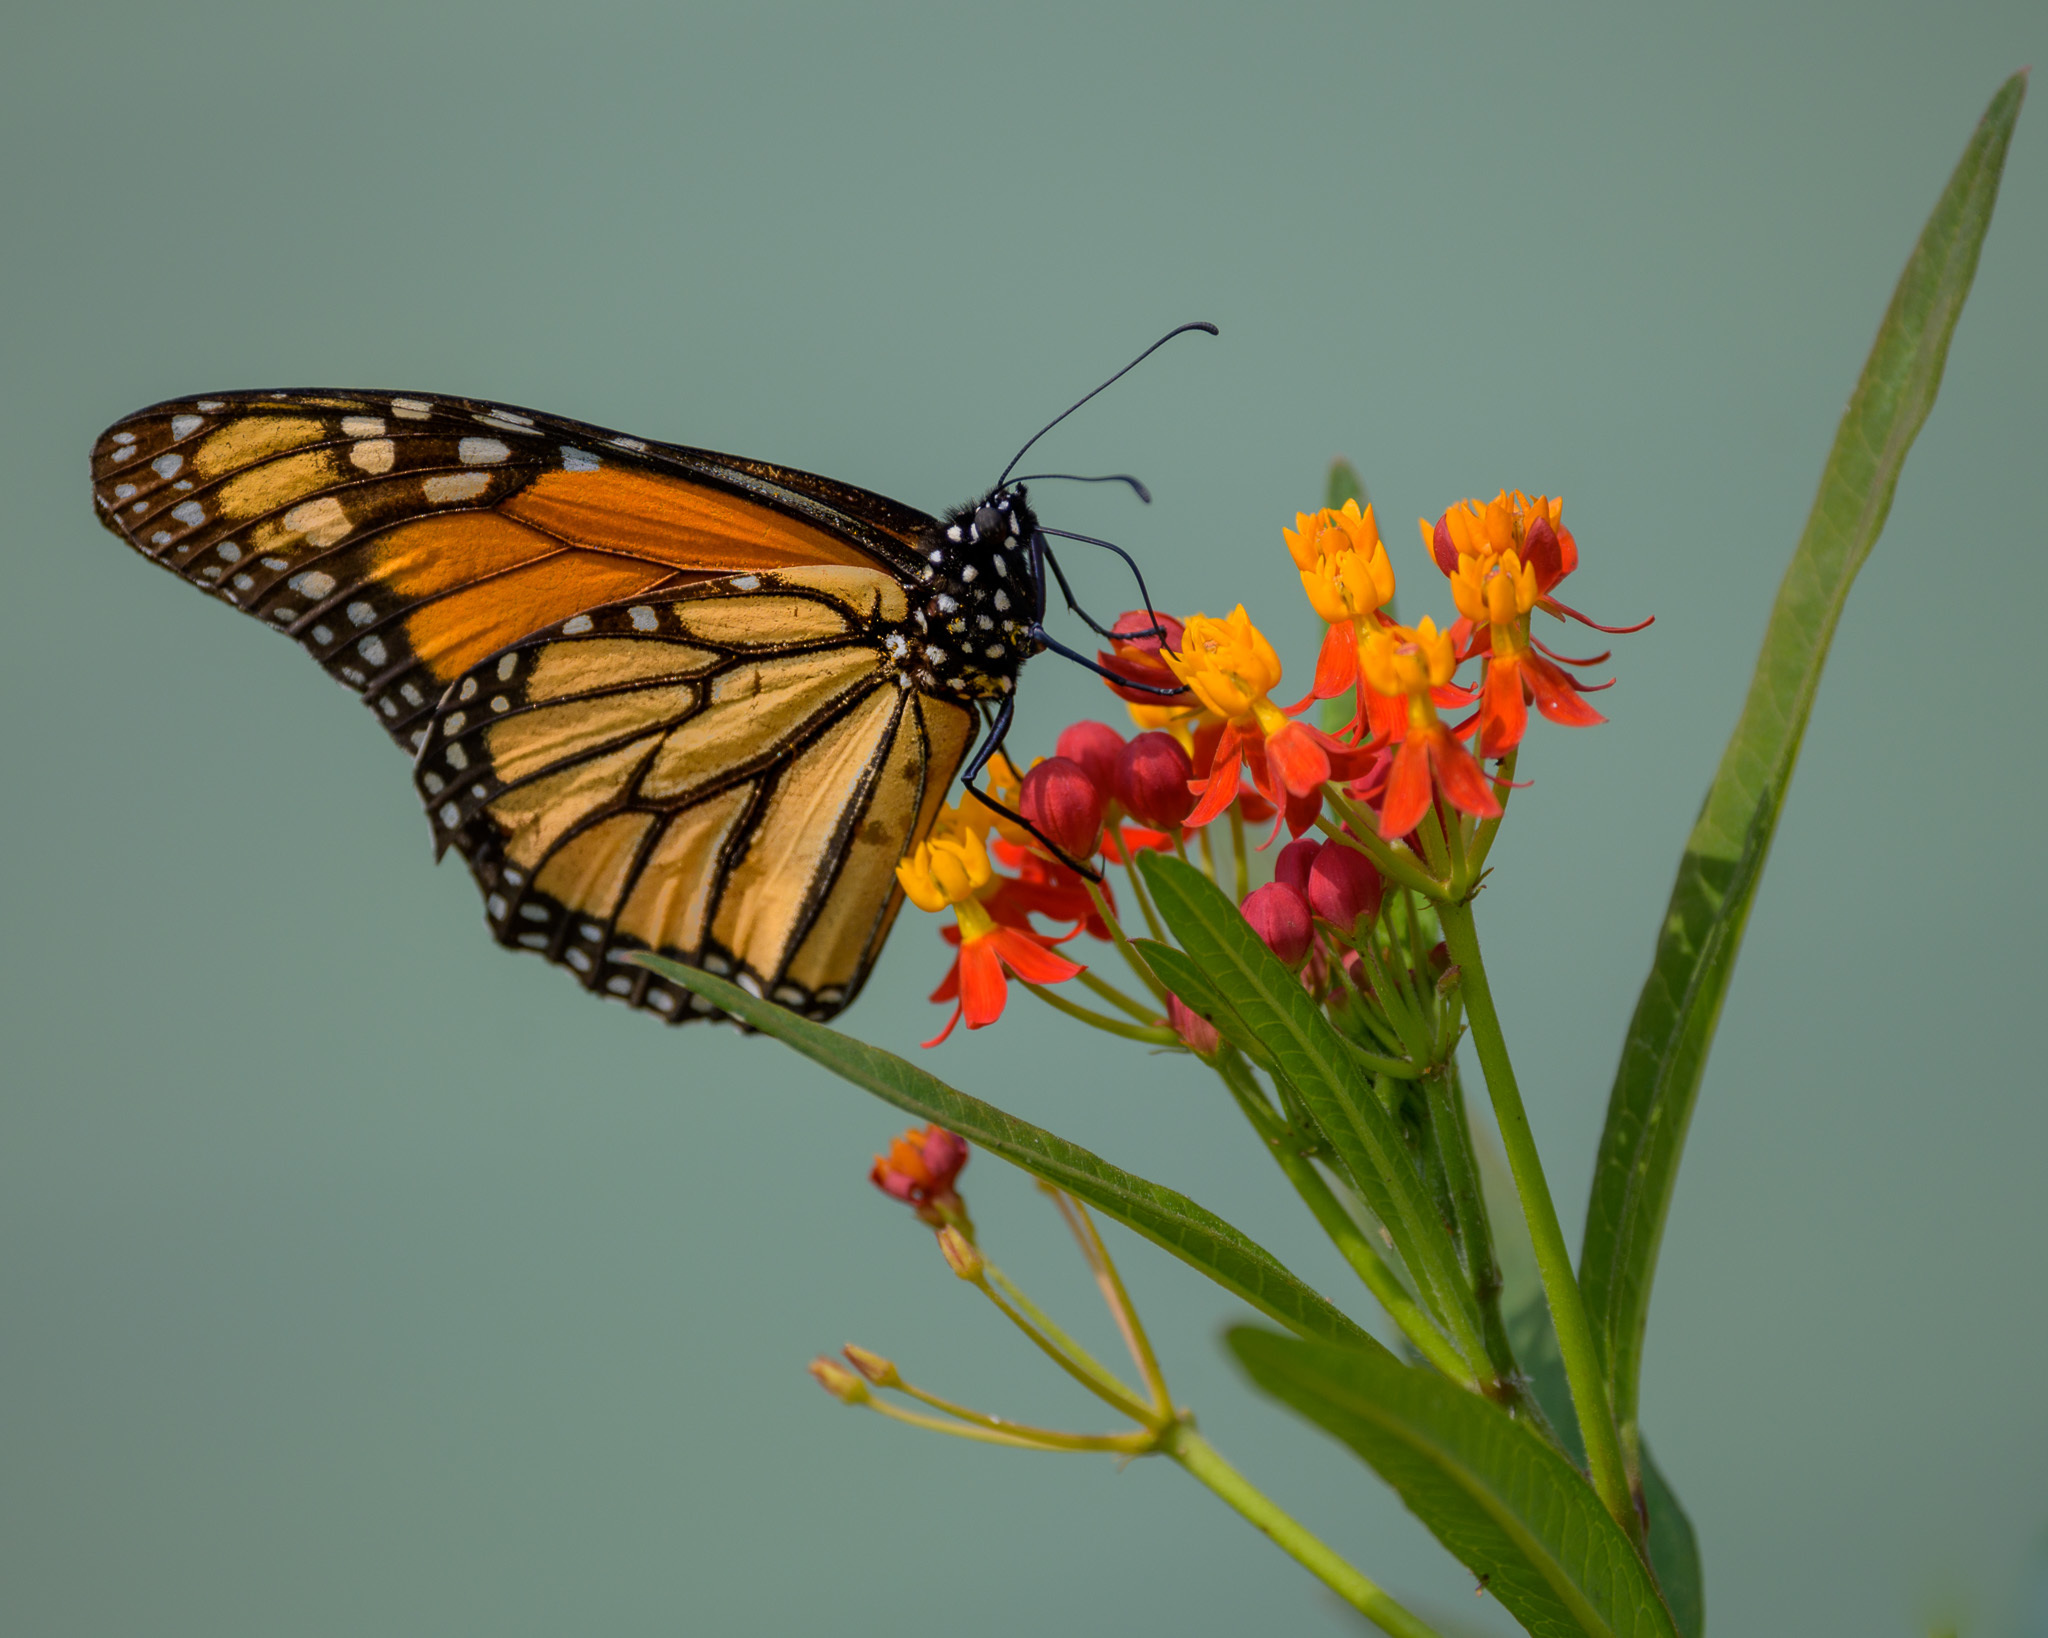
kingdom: Animalia
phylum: Arthropoda
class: Insecta
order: Lepidoptera
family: Nymphalidae
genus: Danaus
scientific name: Danaus plexippus
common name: Monarch
